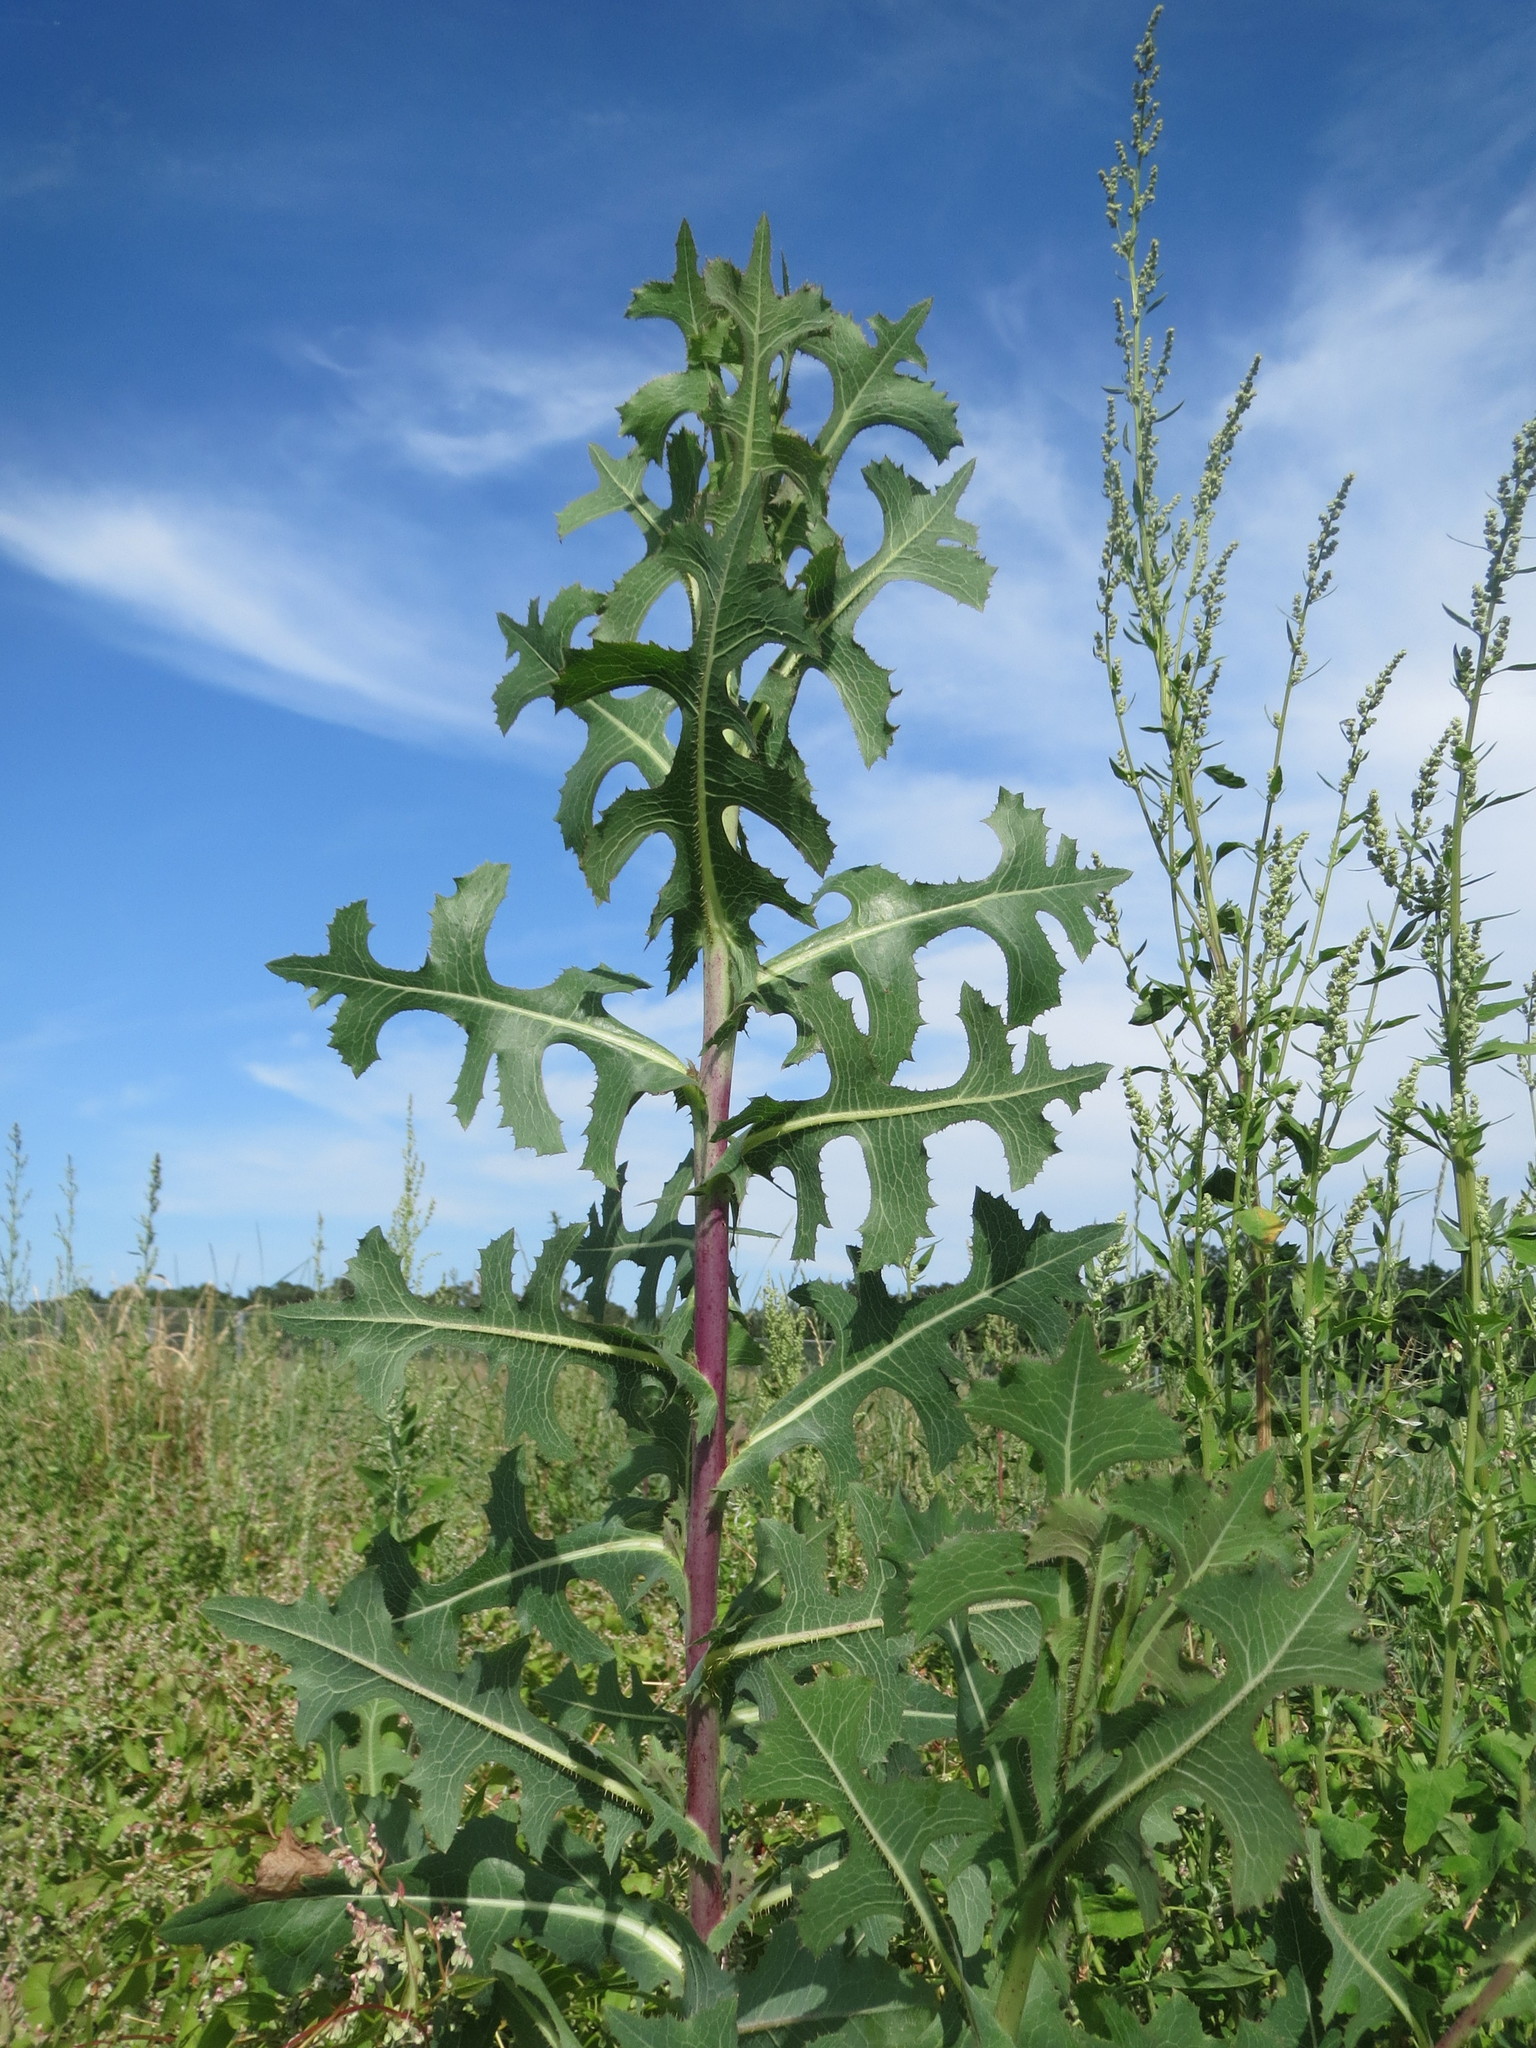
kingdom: Plantae
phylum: Tracheophyta
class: Magnoliopsida
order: Asterales
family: Asteraceae
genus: Lactuca
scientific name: Lactuca serriola
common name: Prickly lettuce
